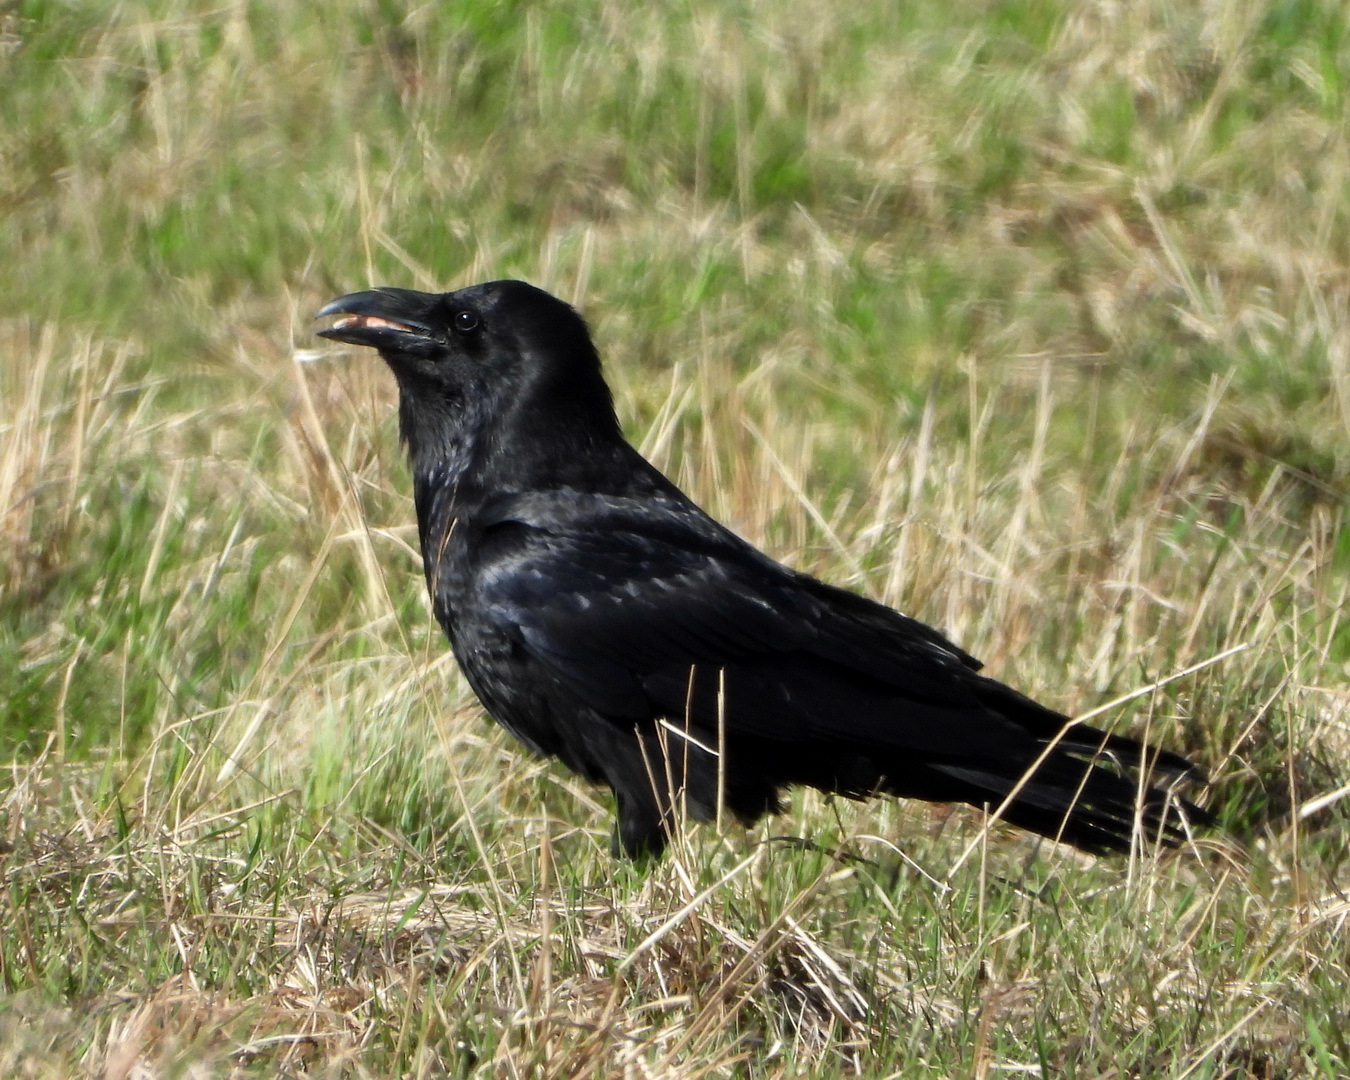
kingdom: Animalia
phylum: Chordata
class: Aves
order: Passeriformes
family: Corvidae
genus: Corvus
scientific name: Corvus corax
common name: Common raven
